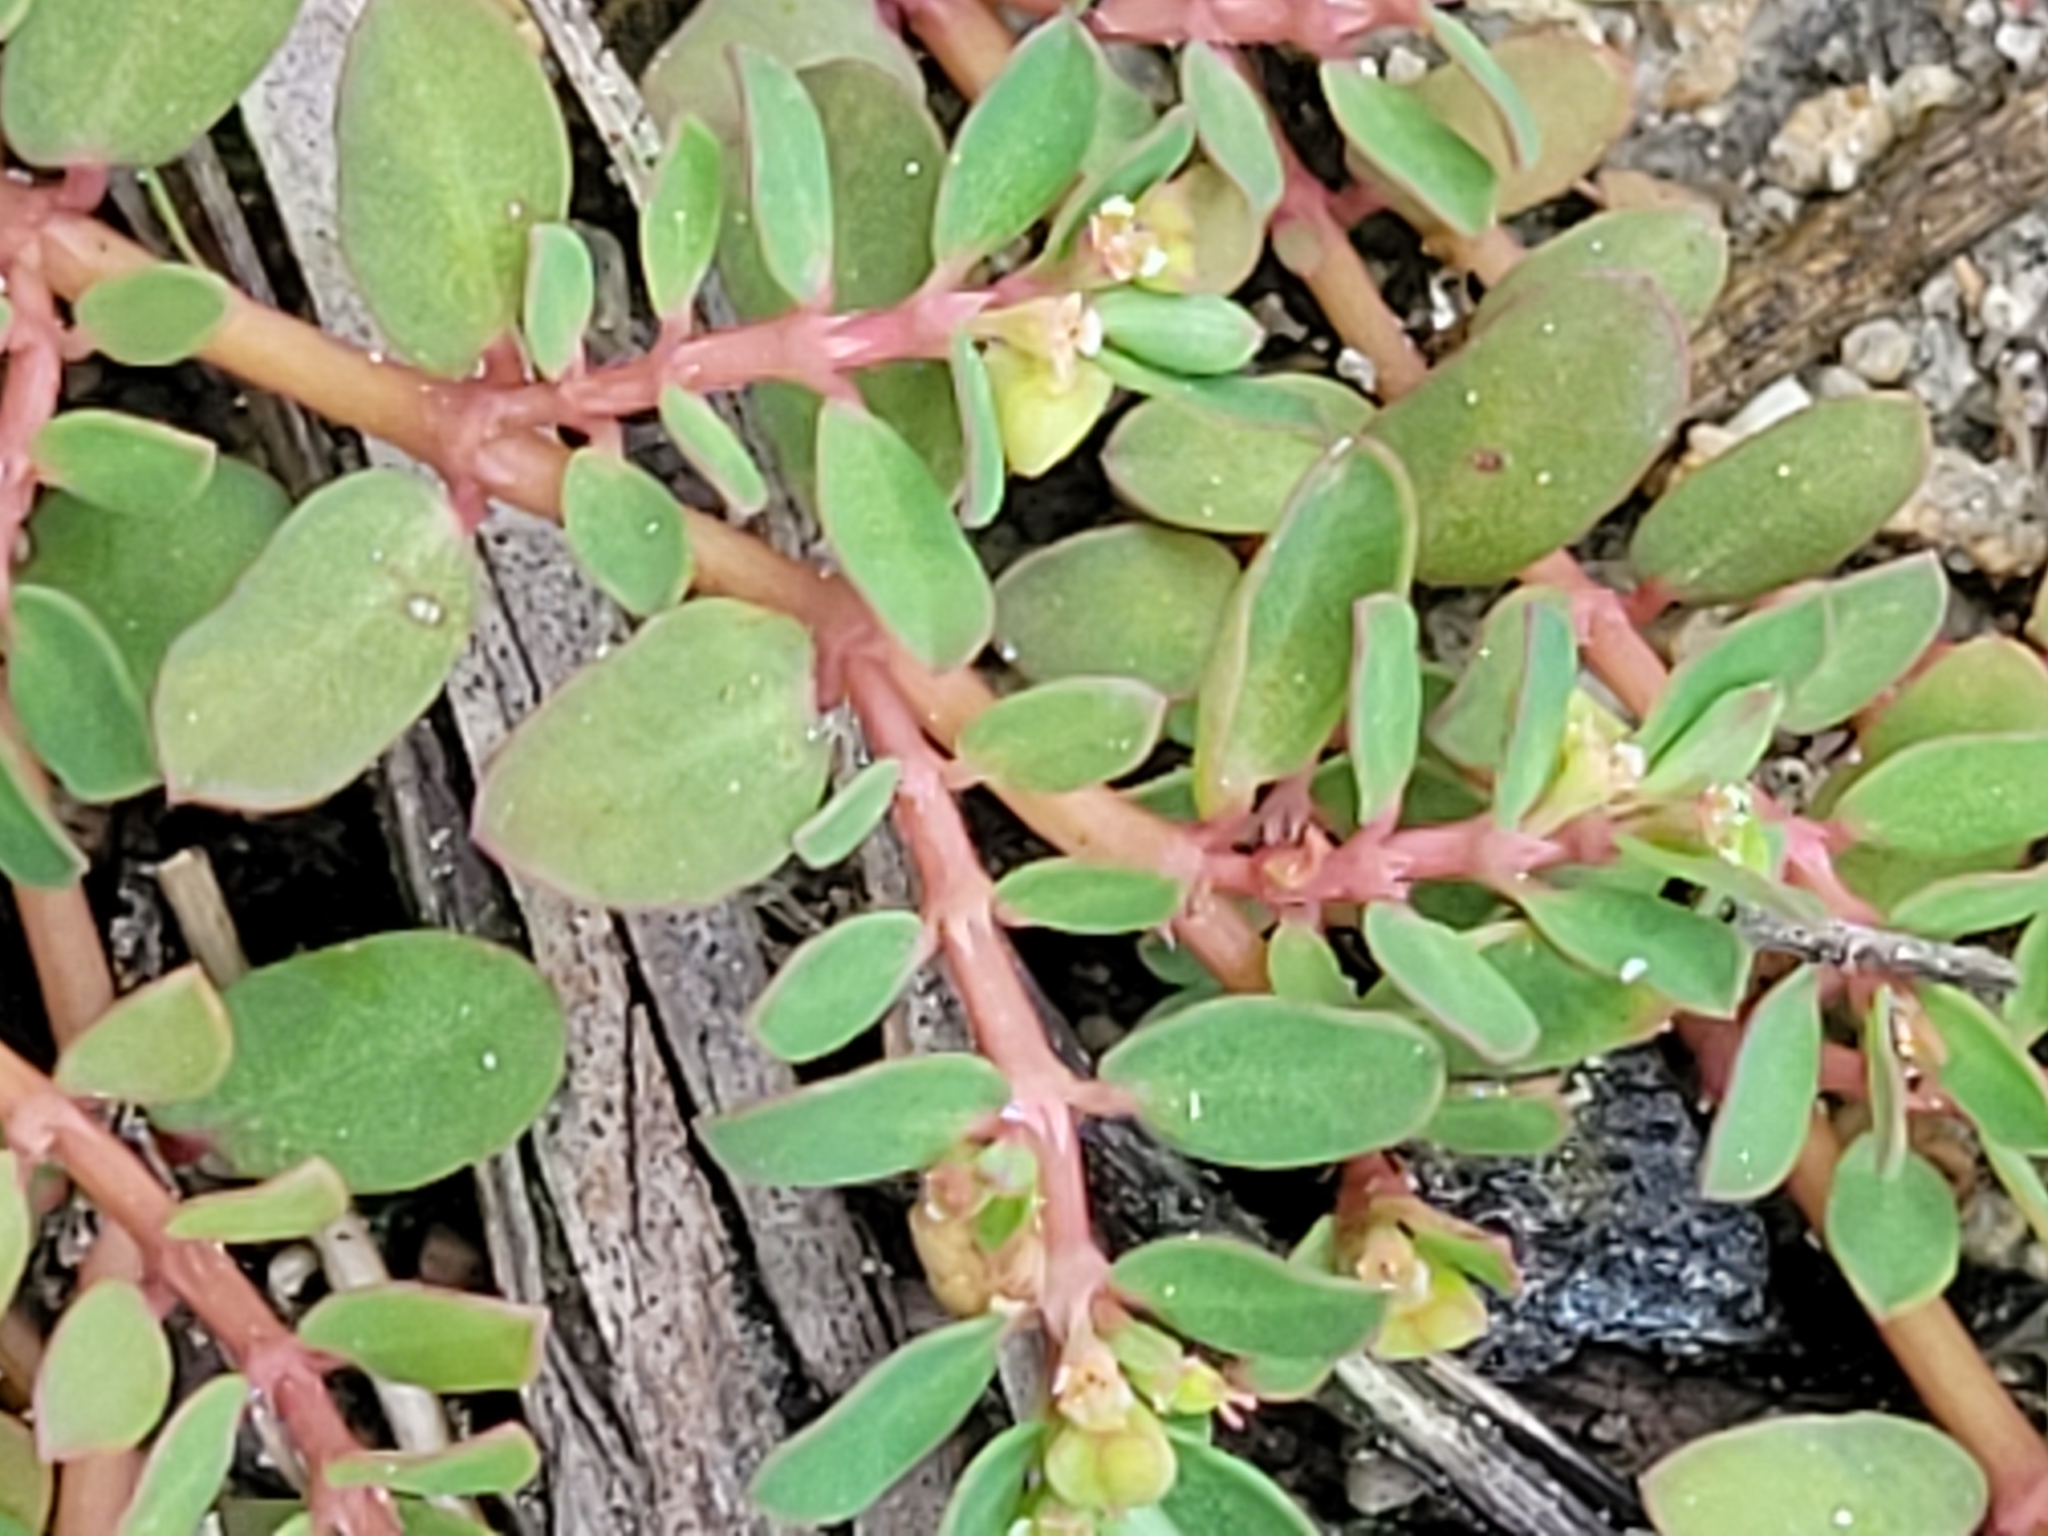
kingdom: Plantae
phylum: Tracheophyta
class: Magnoliopsida
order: Malpighiales
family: Euphorbiaceae
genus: Euphorbia
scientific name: Euphorbia blodgettii
